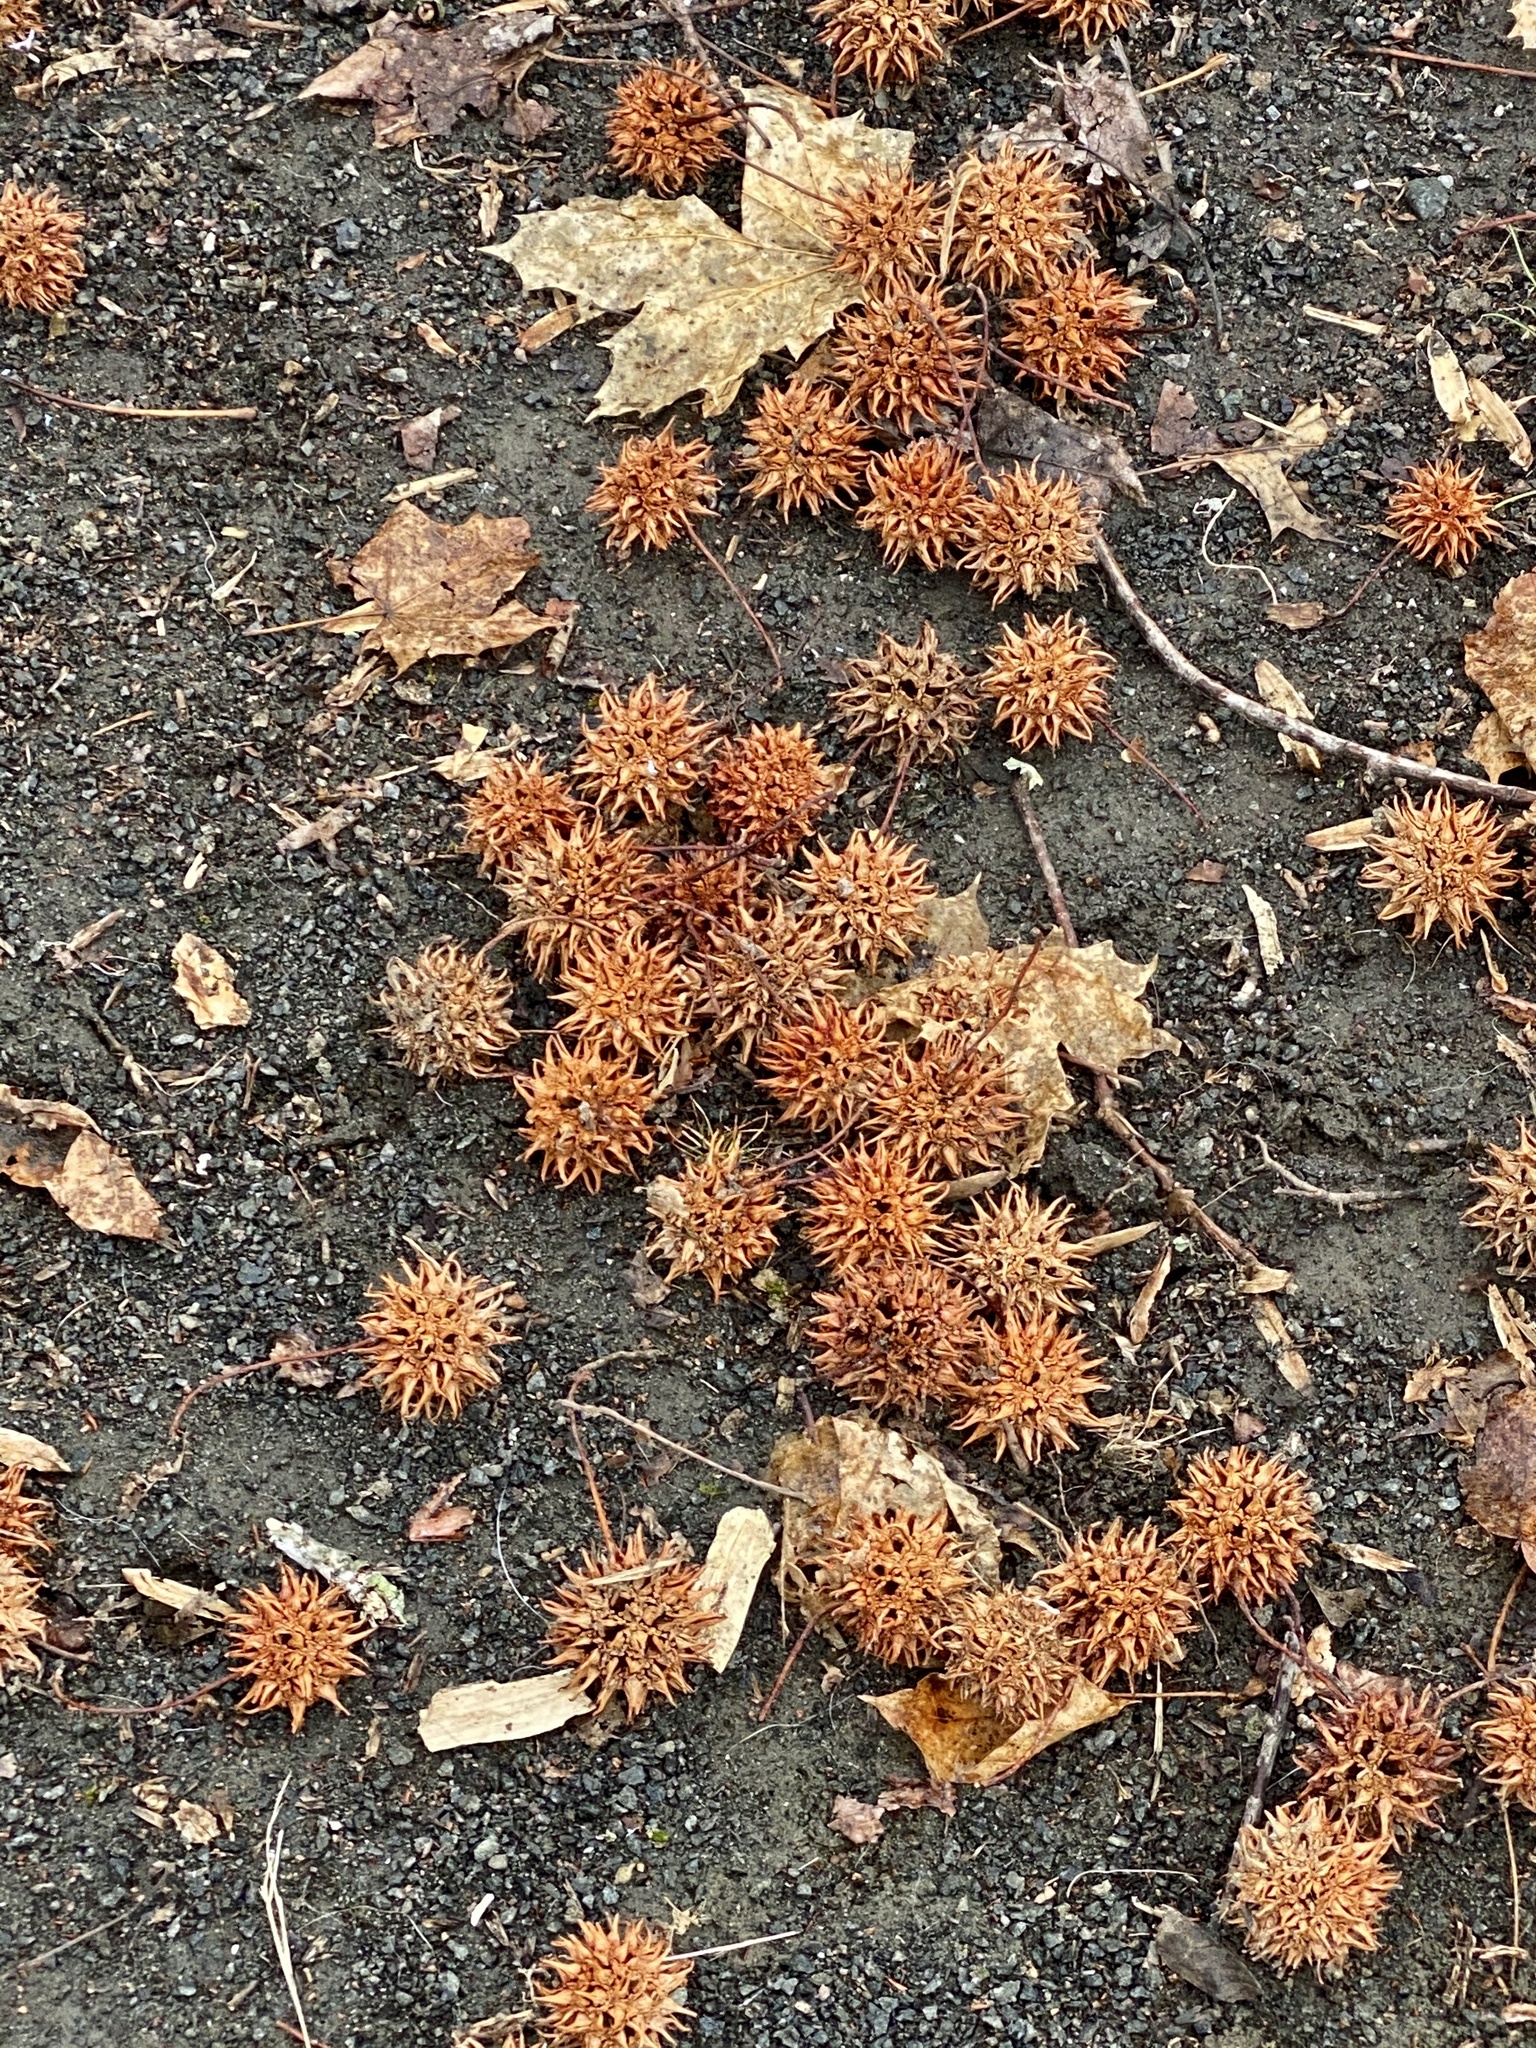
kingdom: Plantae
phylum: Tracheophyta
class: Magnoliopsida
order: Saxifragales
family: Altingiaceae
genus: Liquidambar
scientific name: Liquidambar styraciflua
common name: Sweet gum
